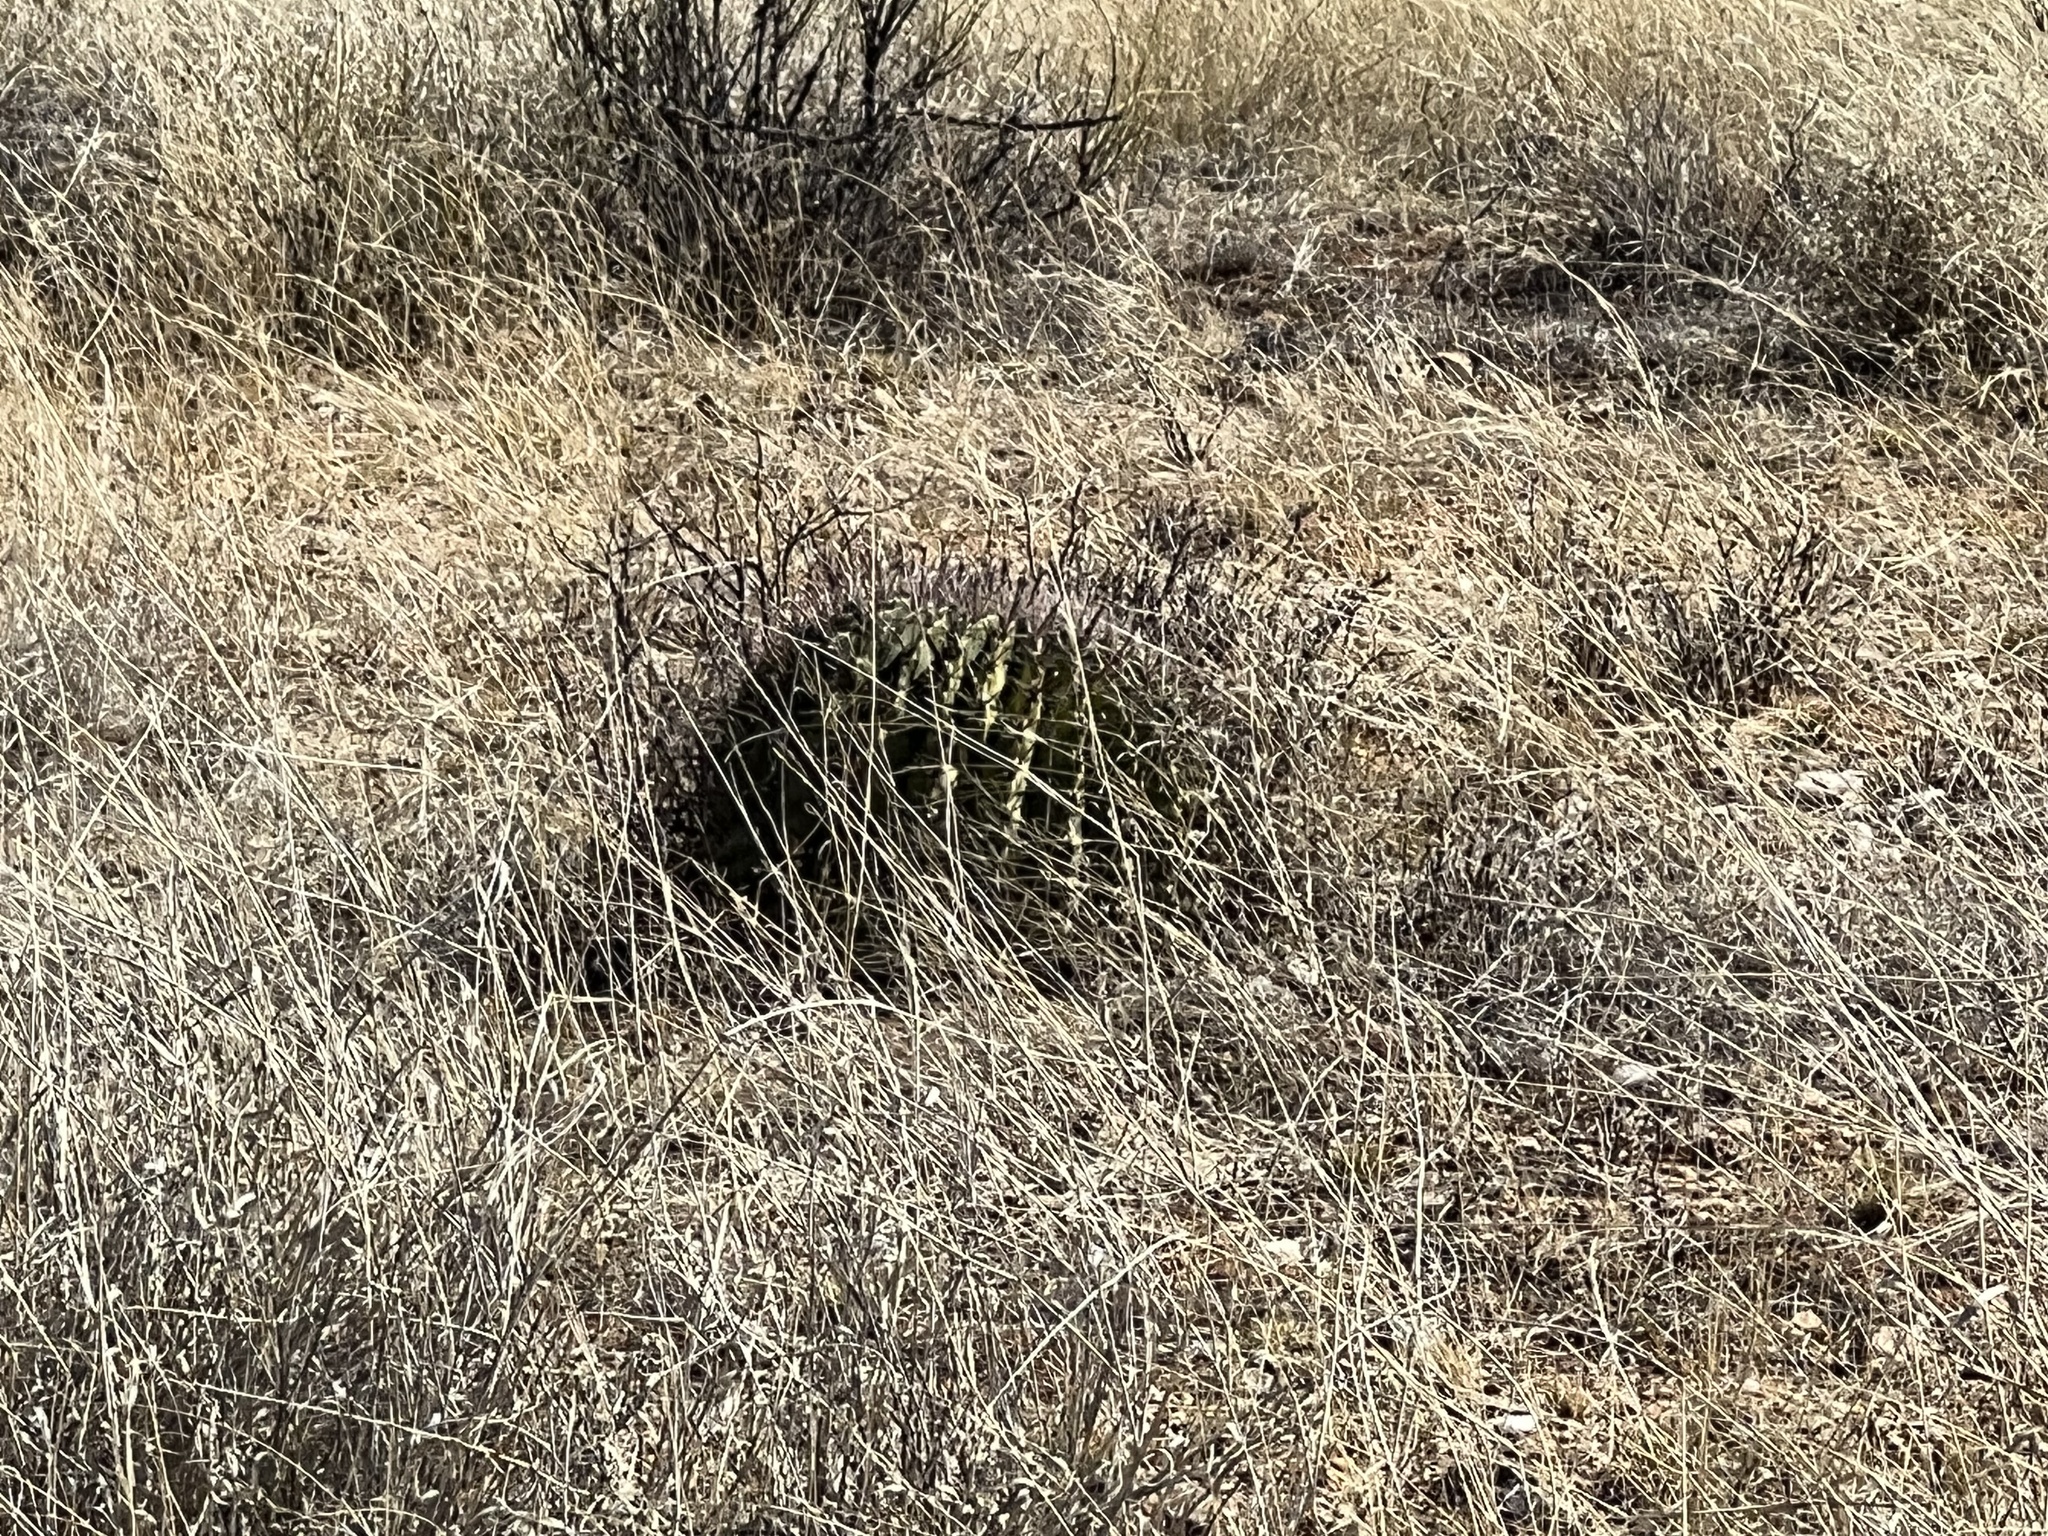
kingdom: Plantae
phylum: Tracheophyta
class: Magnoliopsida
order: Caryophyllales
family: Cactaceae
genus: Ferocactus
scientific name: Ferocactus wislizeni
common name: Candy barrel cactus
